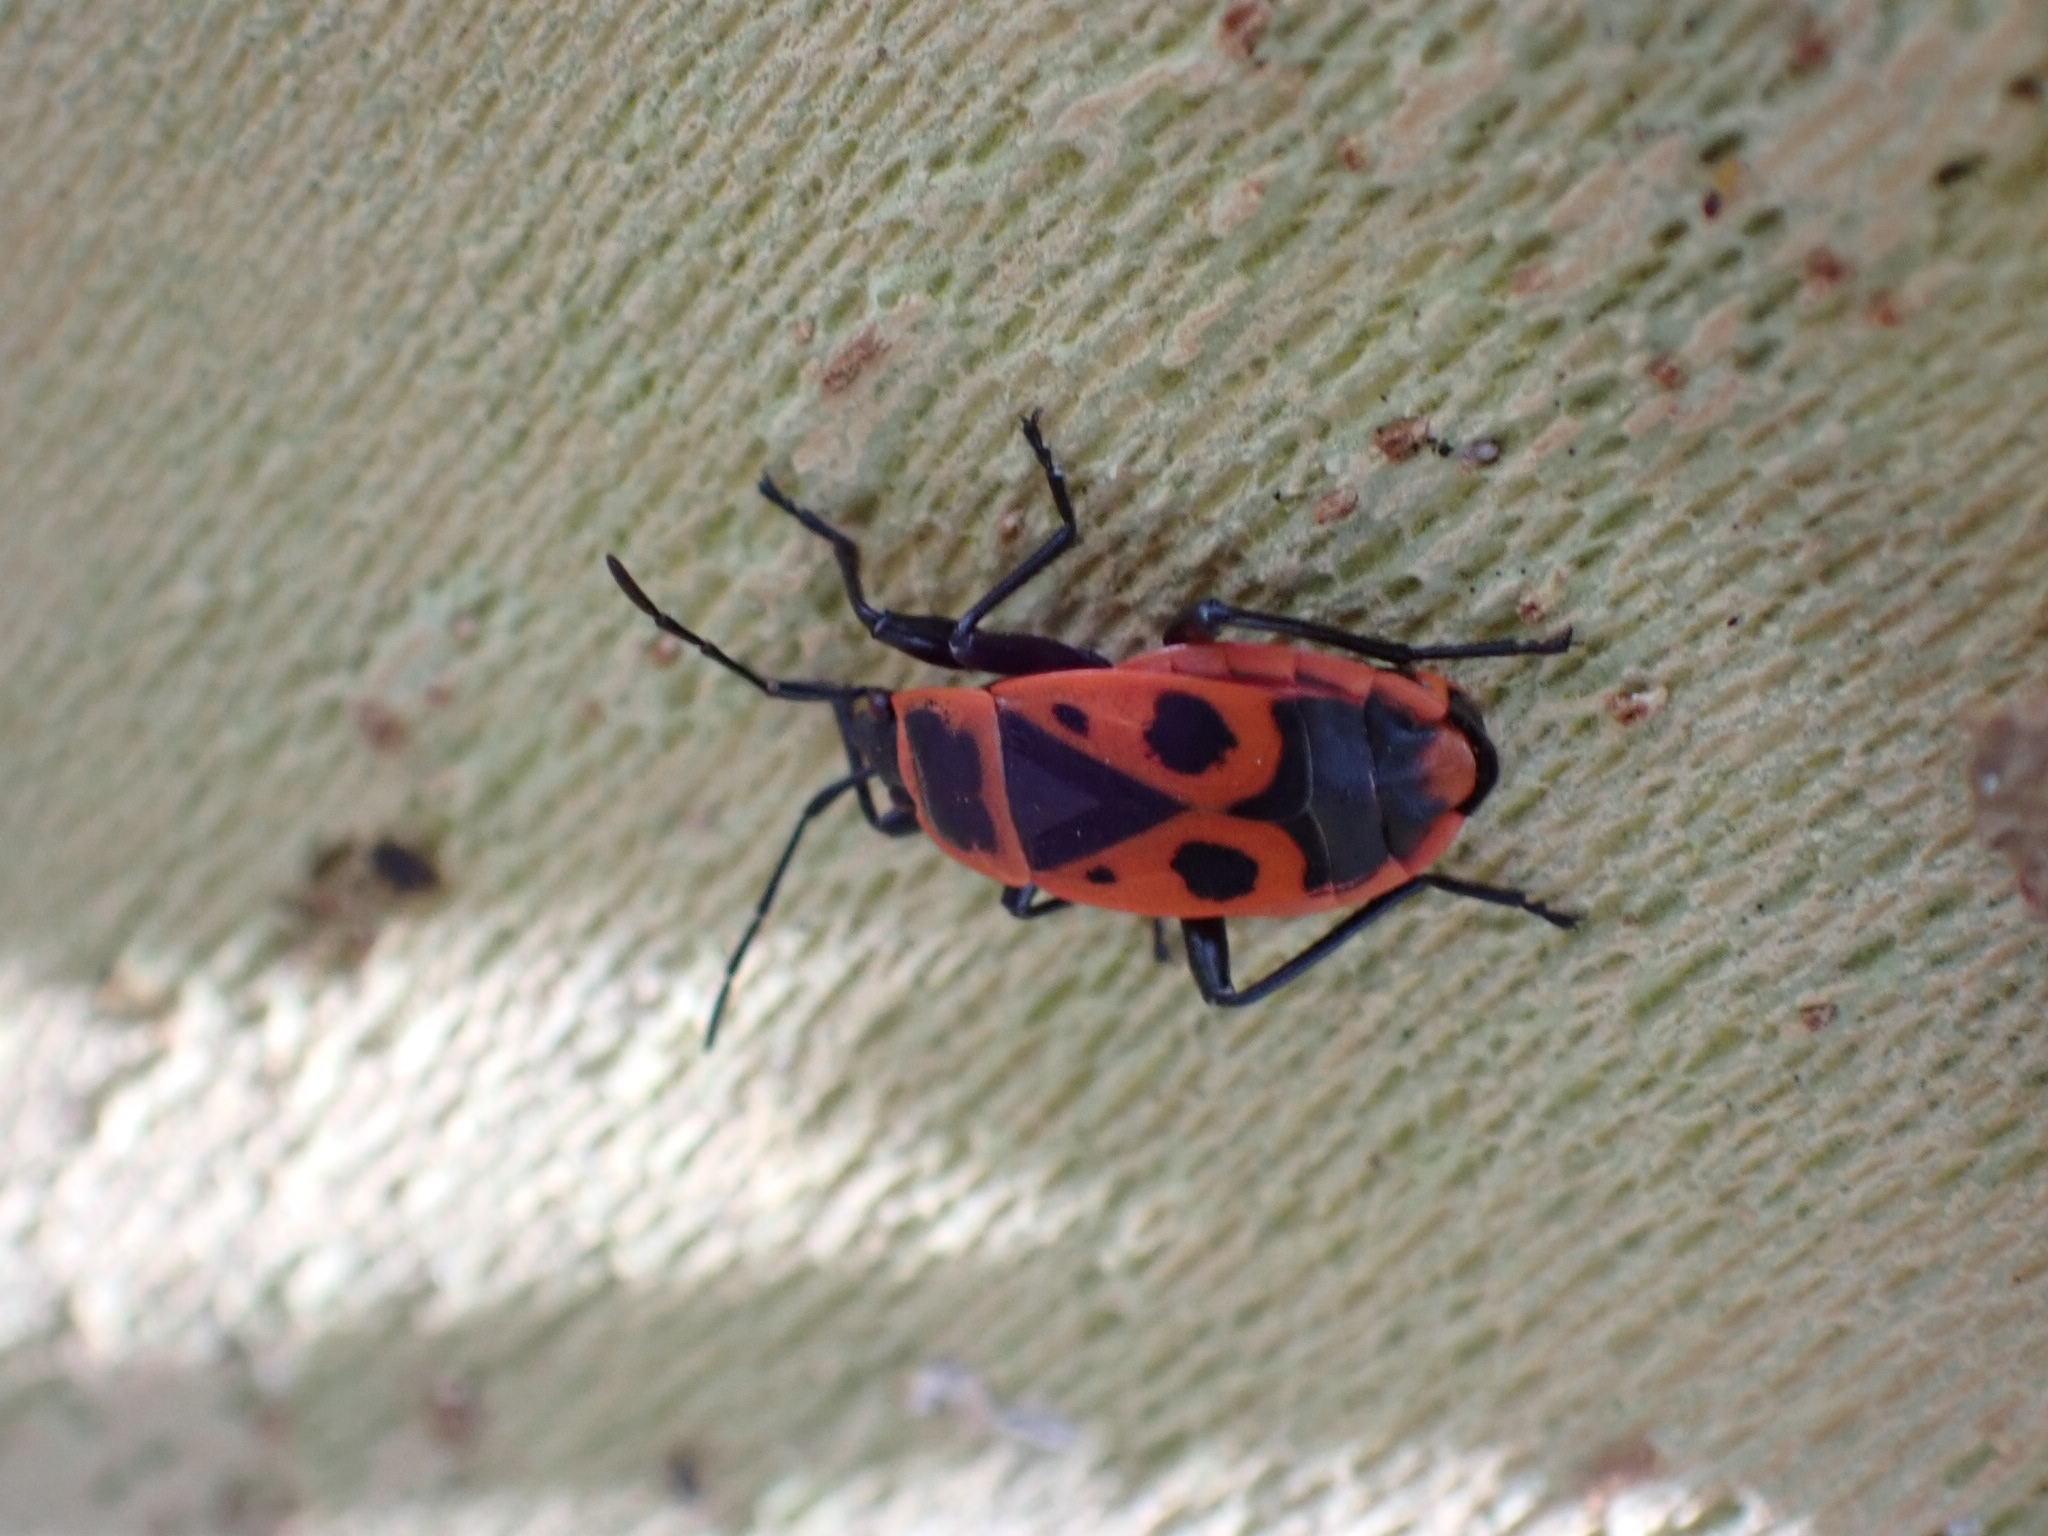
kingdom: Animalia
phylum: Arthropoda
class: Insecta
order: Hemiptera
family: Pyrrhocoridae
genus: Pyrrhocoris
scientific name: Pyrrhocoris apterus
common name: Firebug
